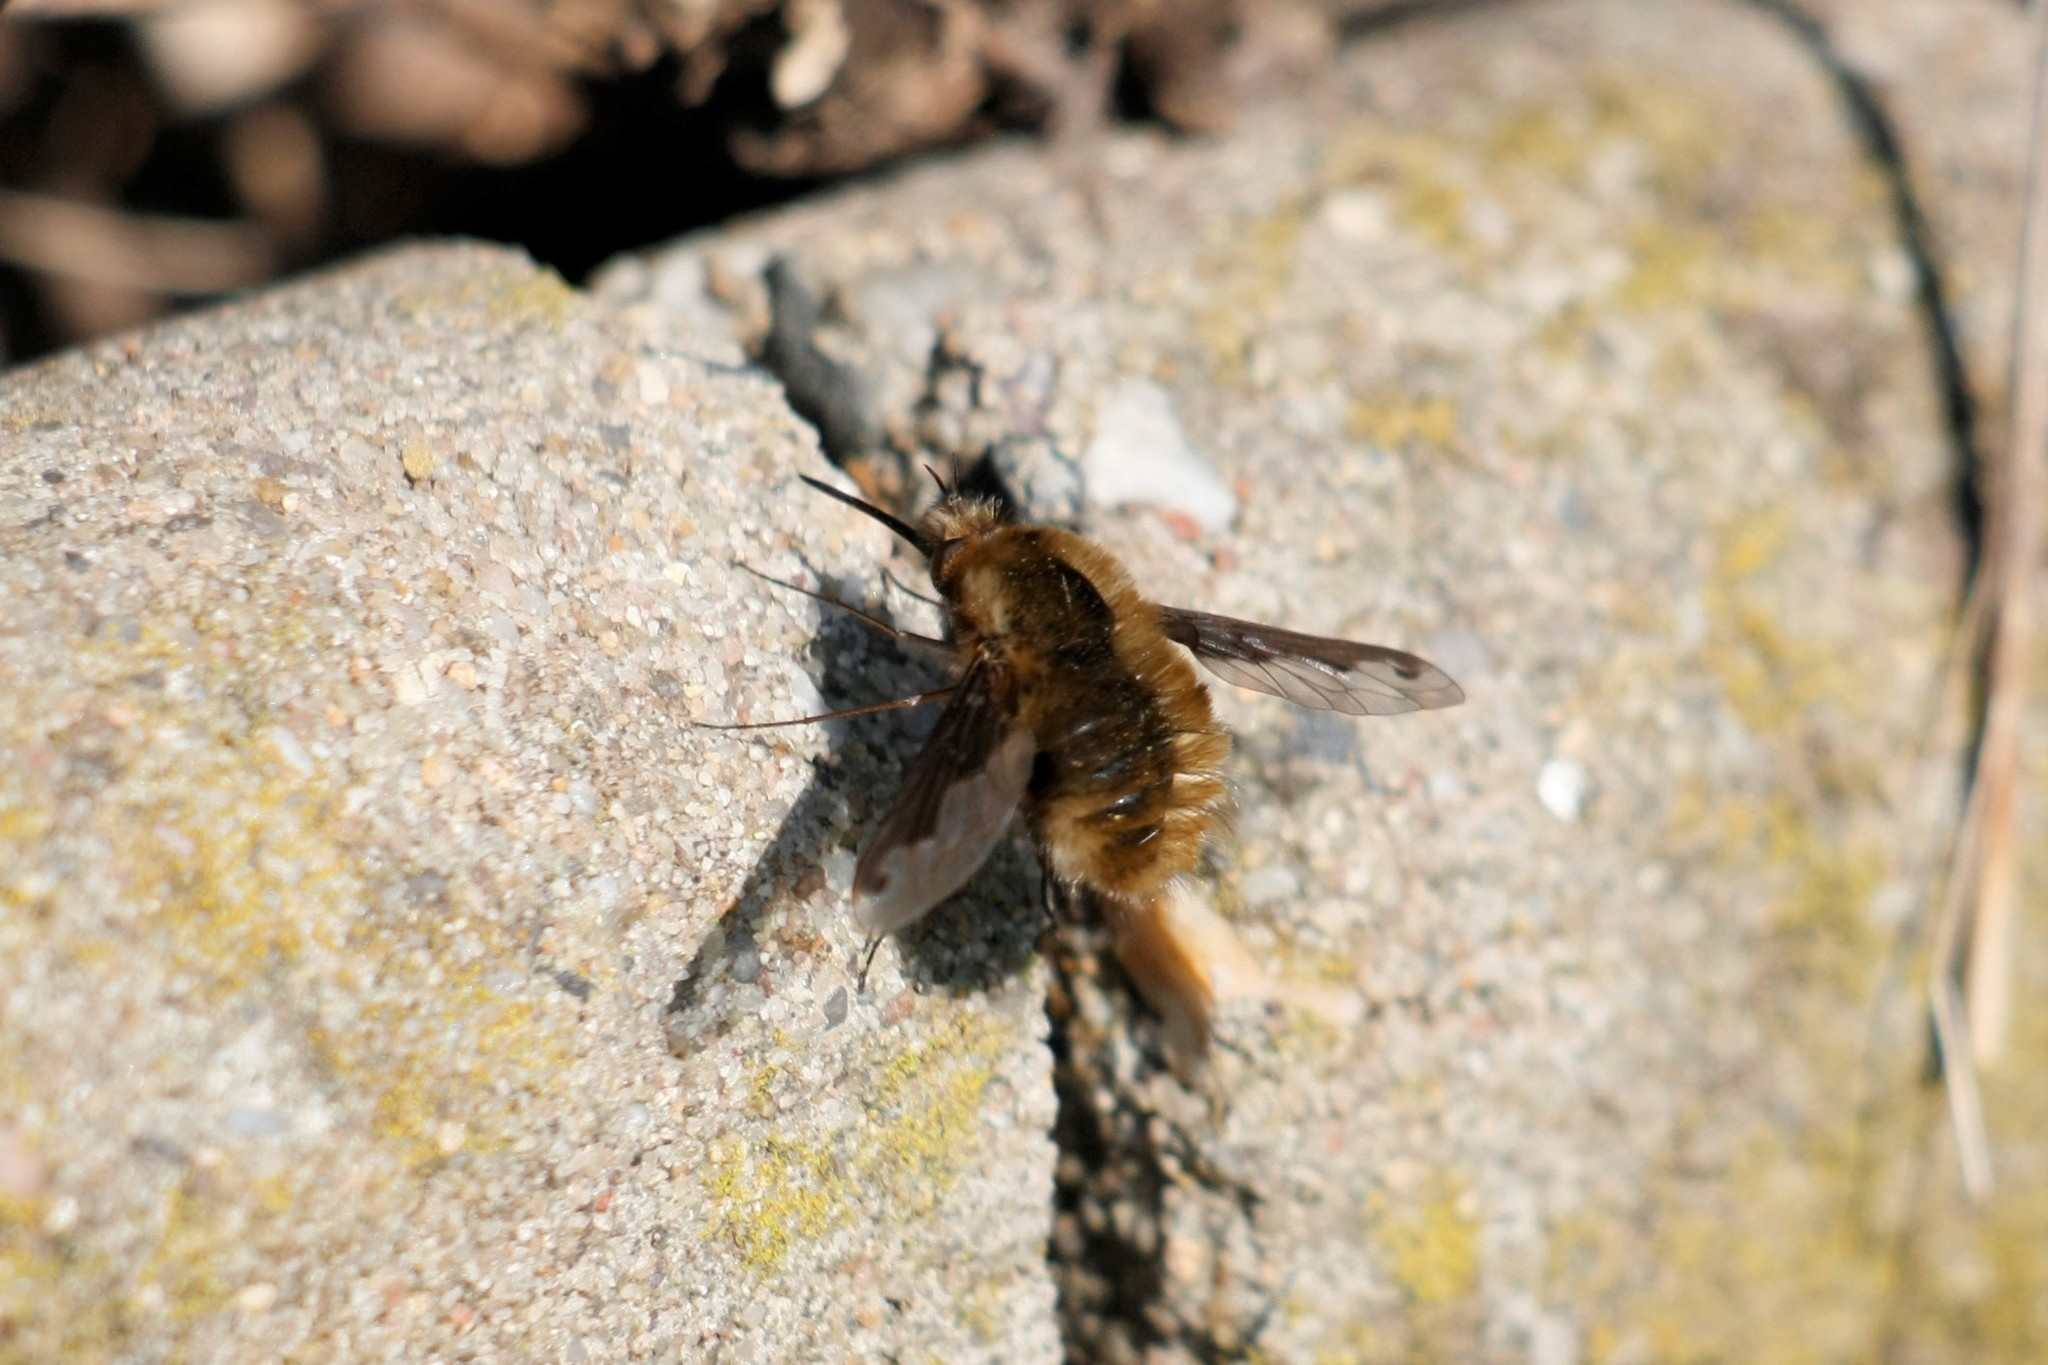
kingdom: Animalia
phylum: Arthropoda
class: Insecta
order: Diptera
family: Bombyliidae
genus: Bombylius
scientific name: Bombylius major
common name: Bee fly
